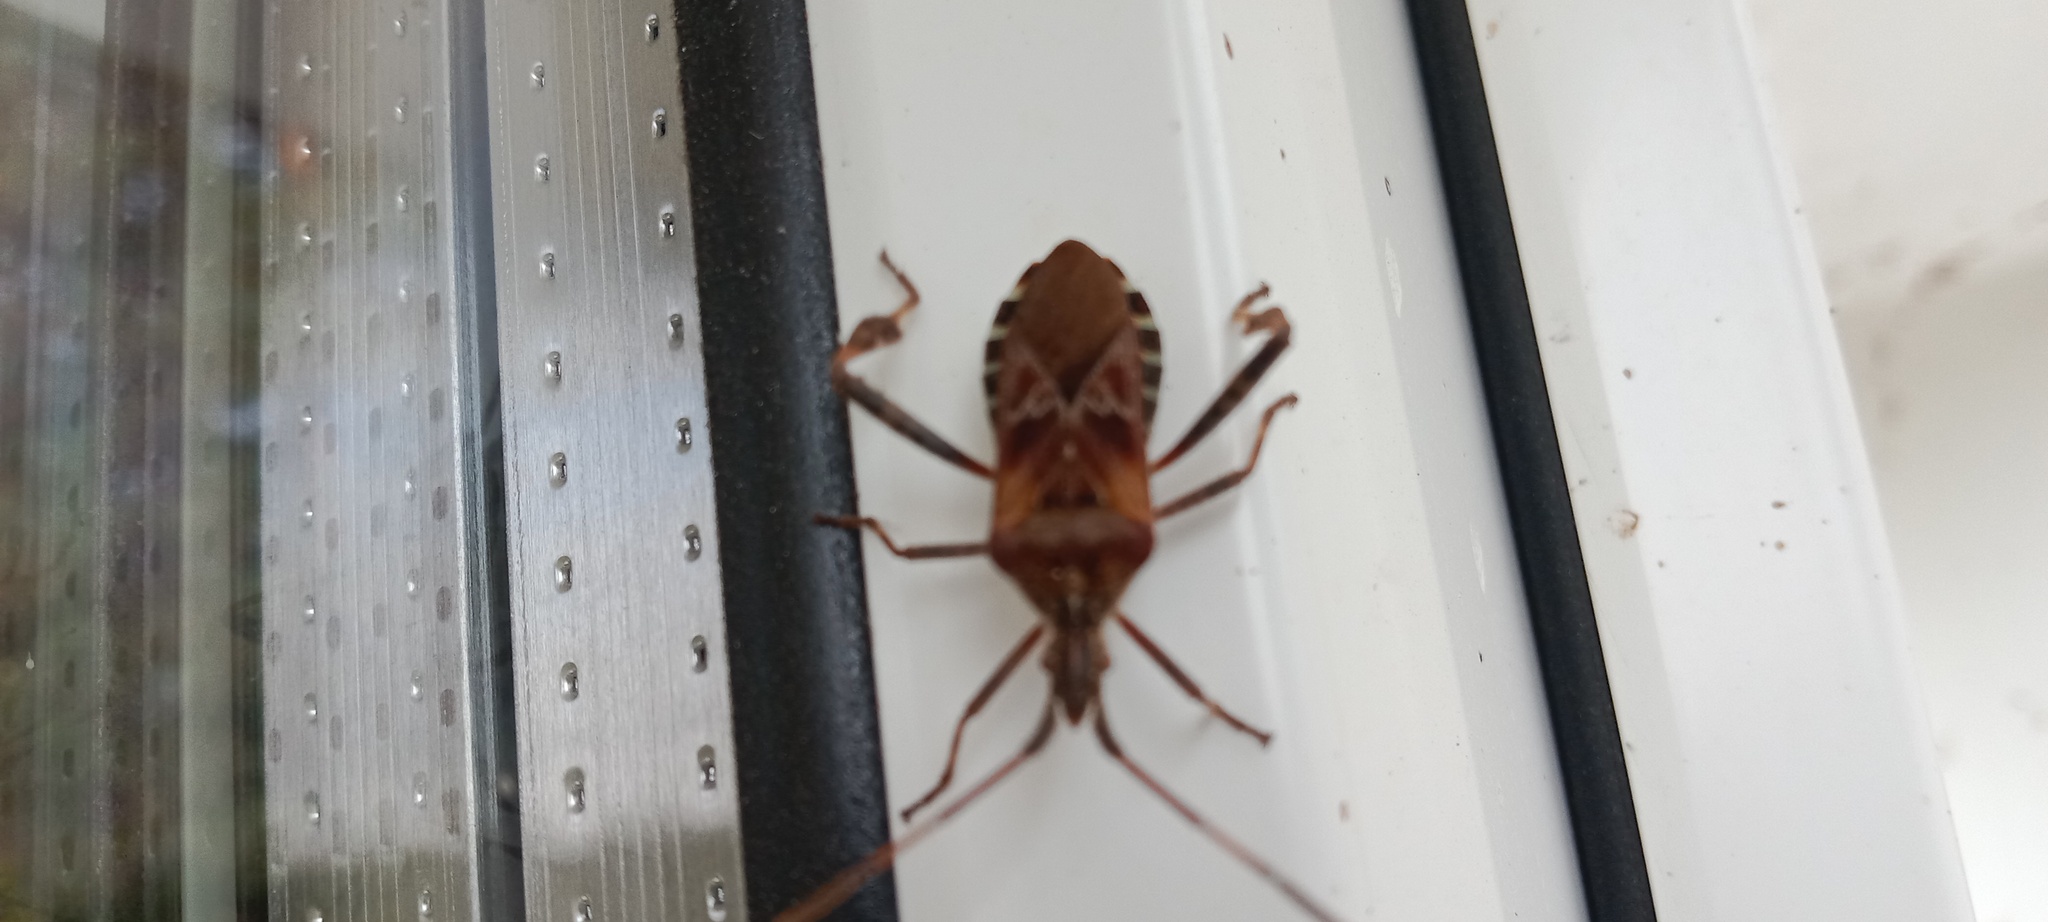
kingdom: Animalia
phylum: Arthropoda
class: Insecta
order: Hemiptera
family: Coreidae
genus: Leptoglossus
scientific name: Leptoglossus occidentalis
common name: Western conifer-seed bug
